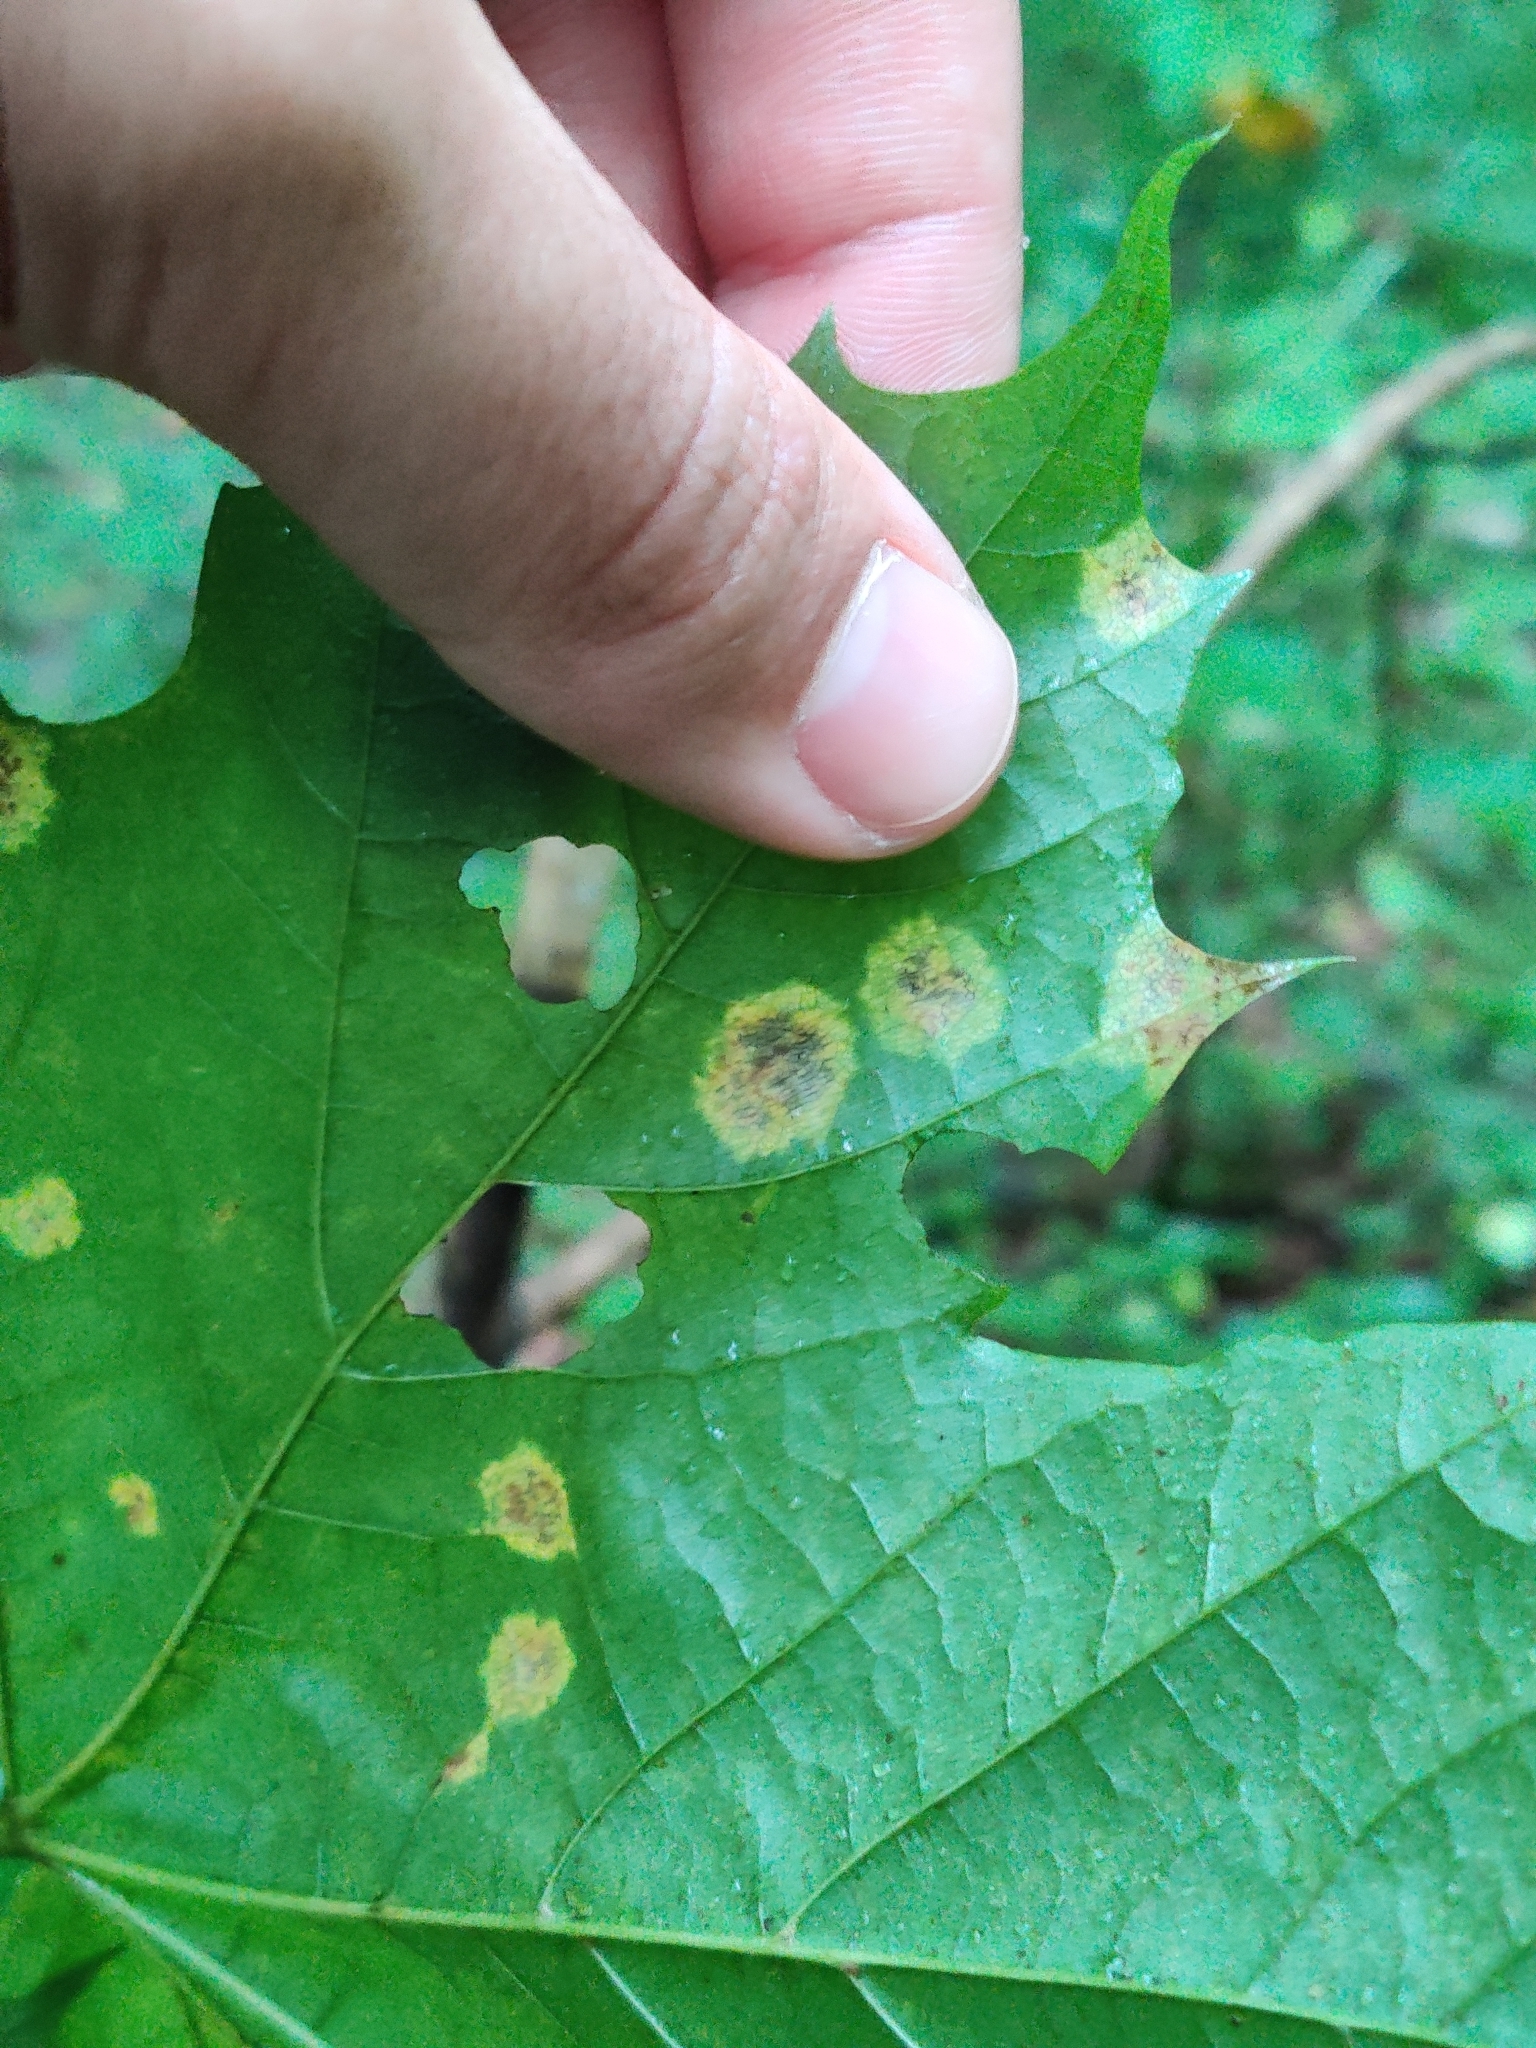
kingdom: Fungi
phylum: Ascomycota
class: Leotiomycetes
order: Rhytismatales
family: Rhytismataceae
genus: Rhytisma
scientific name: Rhytisma acerinum
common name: European tar spot
